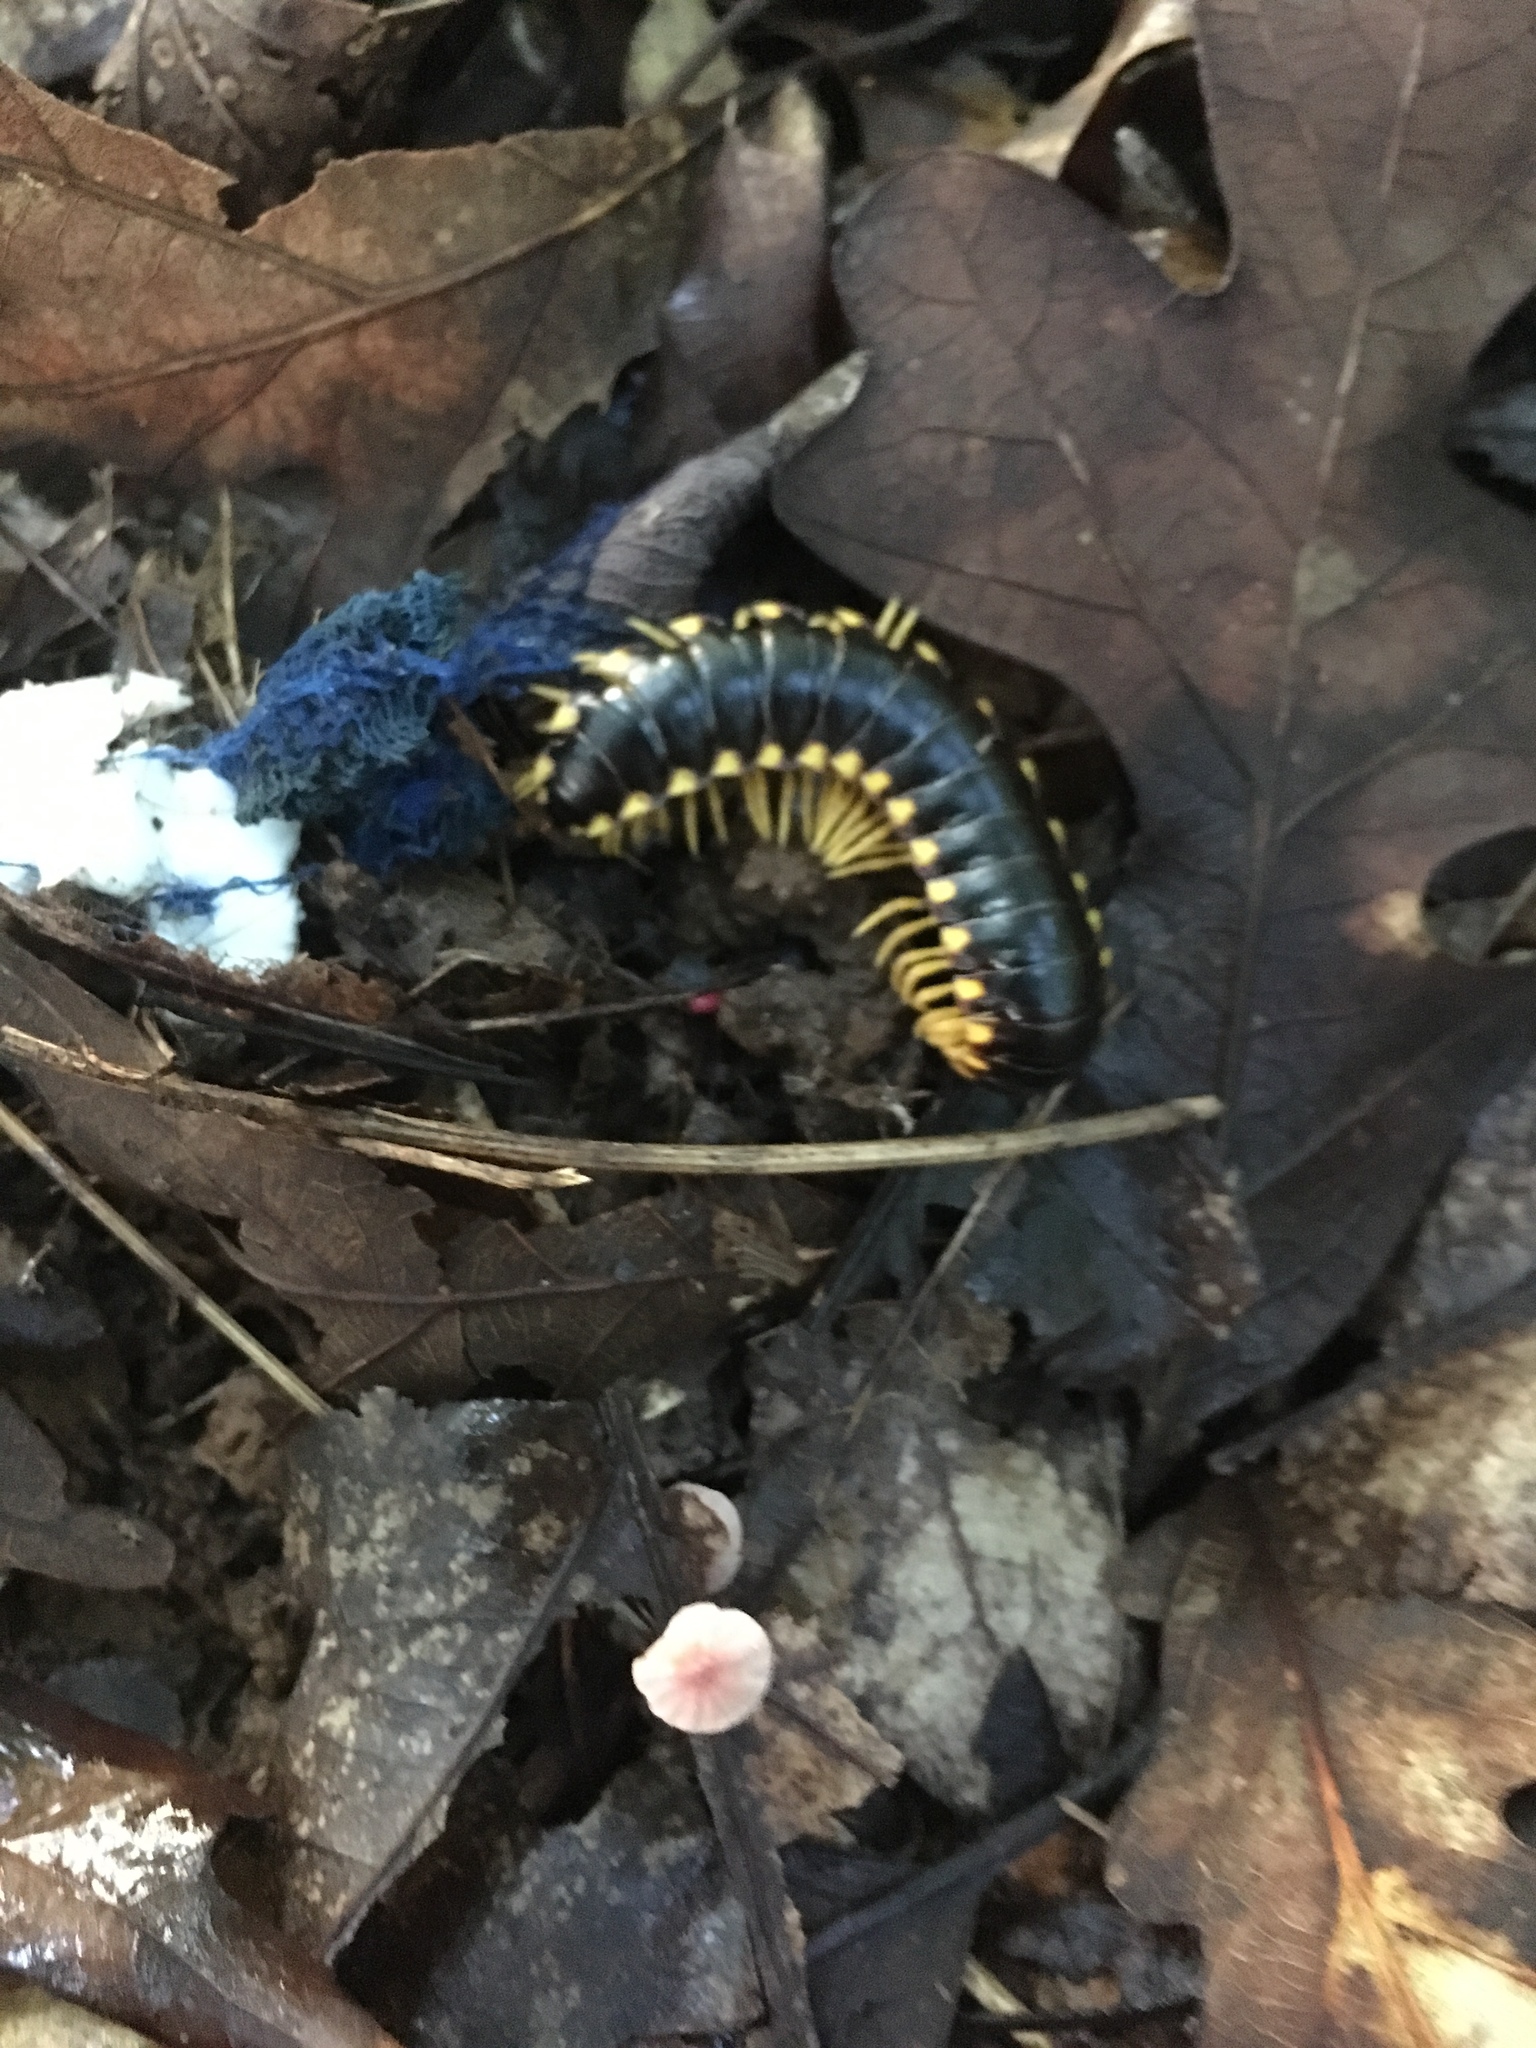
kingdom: Animalia
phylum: Arthropoda
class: Diplopoda
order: Polydesmida
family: Xystodesmidae
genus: Apheloria
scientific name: Apheloria tigana
